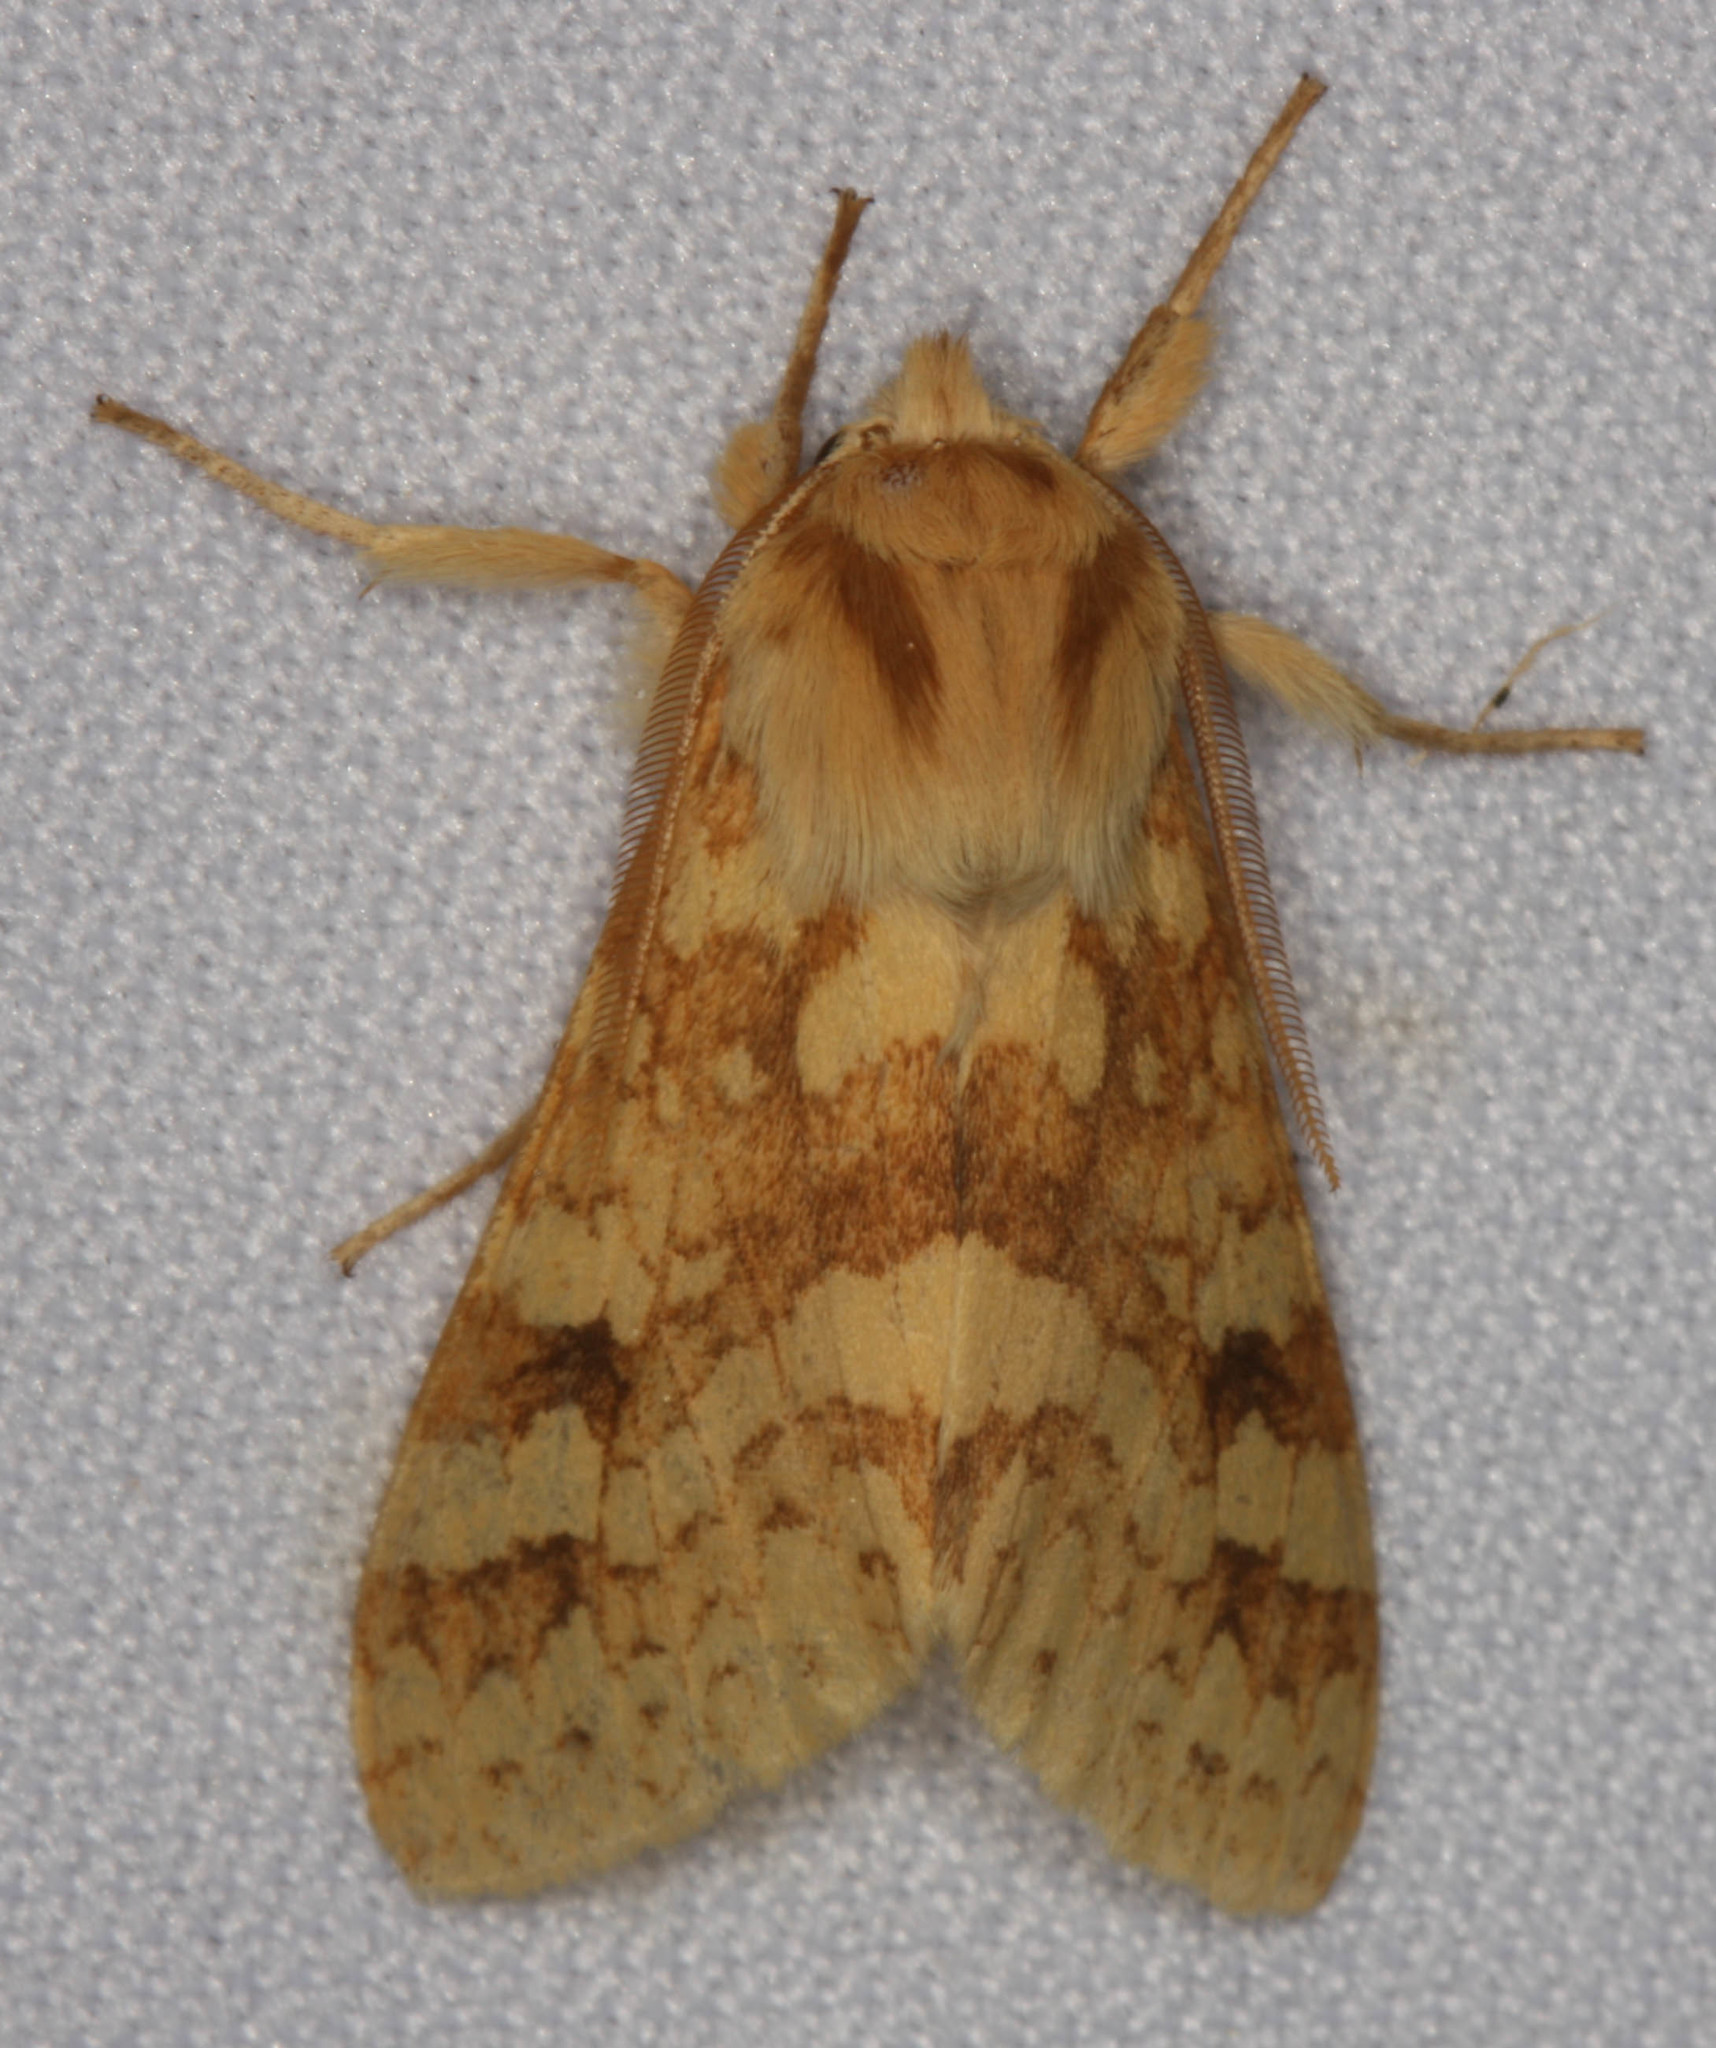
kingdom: Animalia
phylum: Arthropoda
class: Insecta
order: Lepidoptera
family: Erebidae
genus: Lophocampa
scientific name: Lophocampa maculata
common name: Spotted tussock moth
